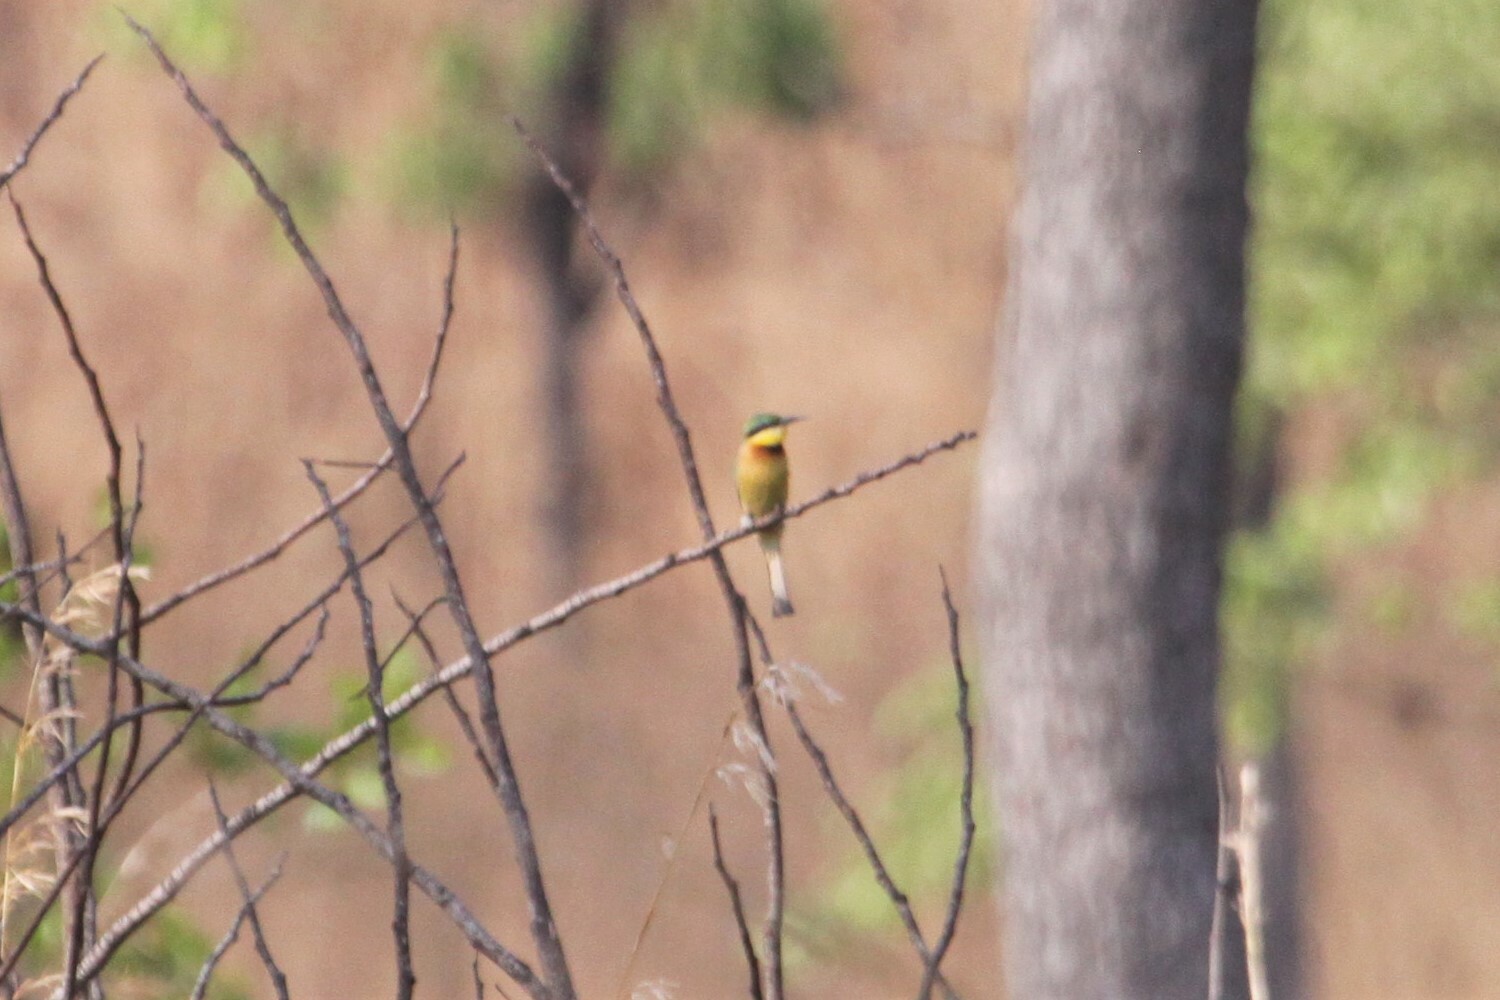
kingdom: Animalia
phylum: Chordata
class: Aves
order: Coraciiformes
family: Meropidae
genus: Merops
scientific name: Merops pusillus
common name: Little bee-eater
